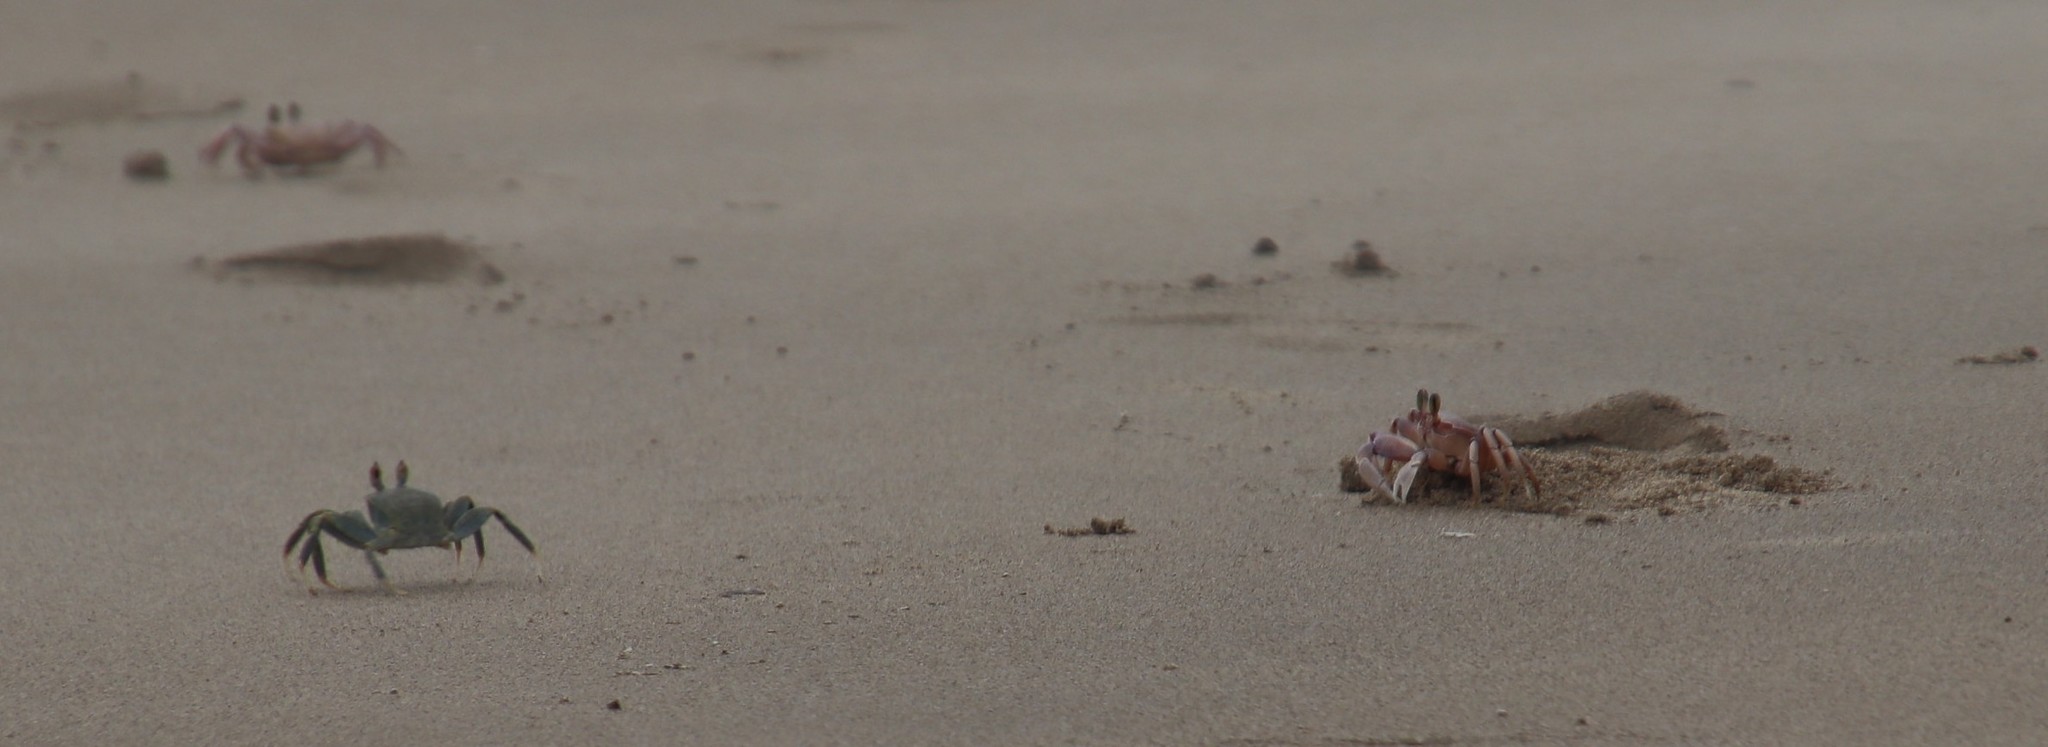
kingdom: Animalia
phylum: Arthropoda
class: Malacostraca
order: Decapoda
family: Ocypodidae
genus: Ocypode
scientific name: Ocypode ceratophthalmus
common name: Indo-pacific ghost crab
